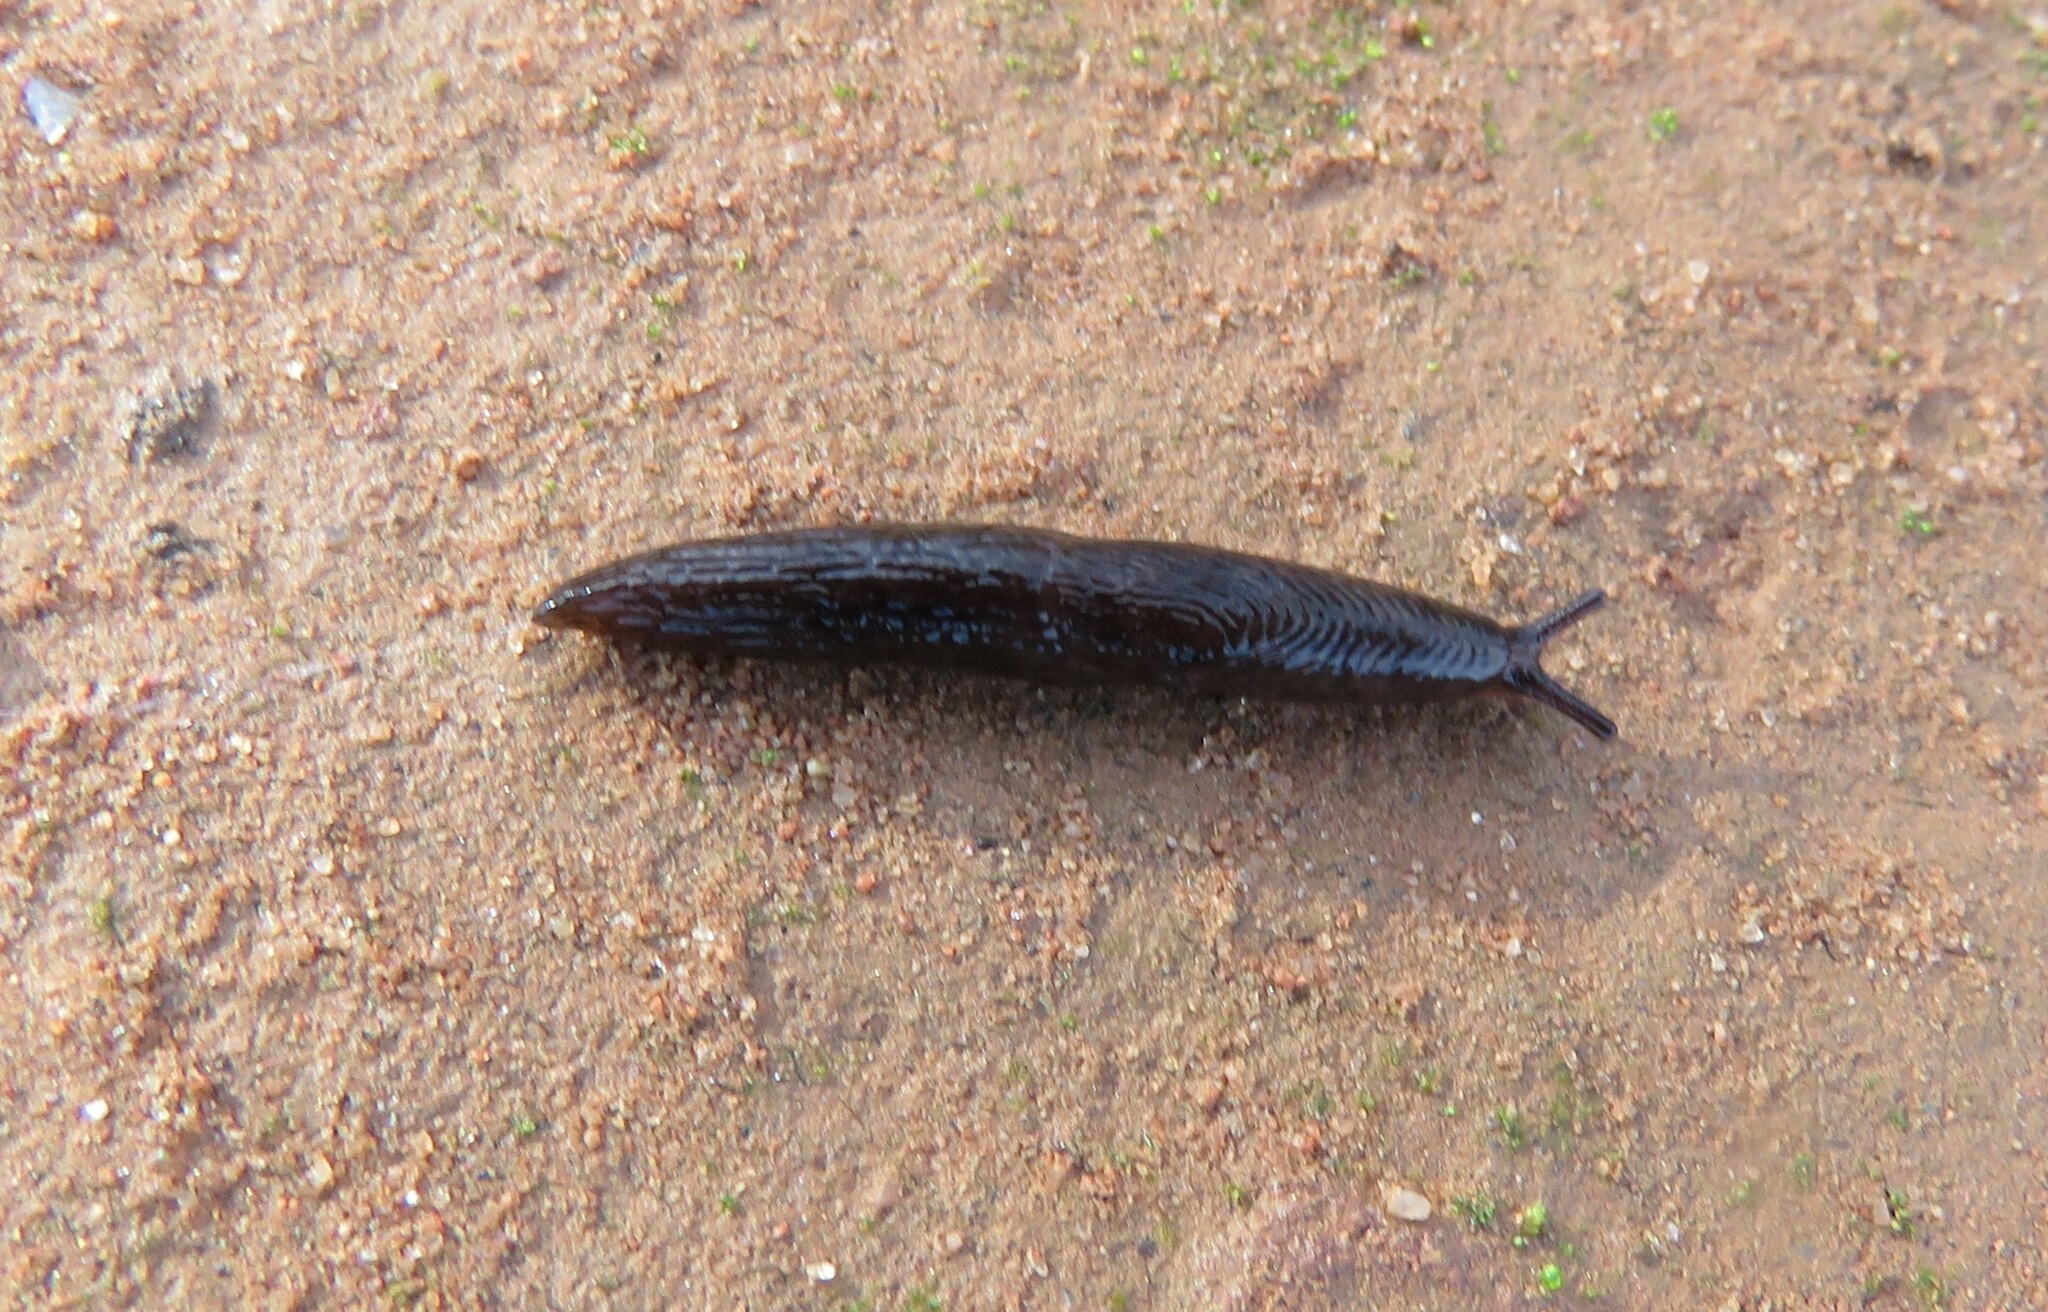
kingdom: Animalia
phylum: Mollusca
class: Gastropoda
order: Stylommatophora
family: Agriolimacidae
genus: Deroceras
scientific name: Deroceras laeve
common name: Marsh slug
